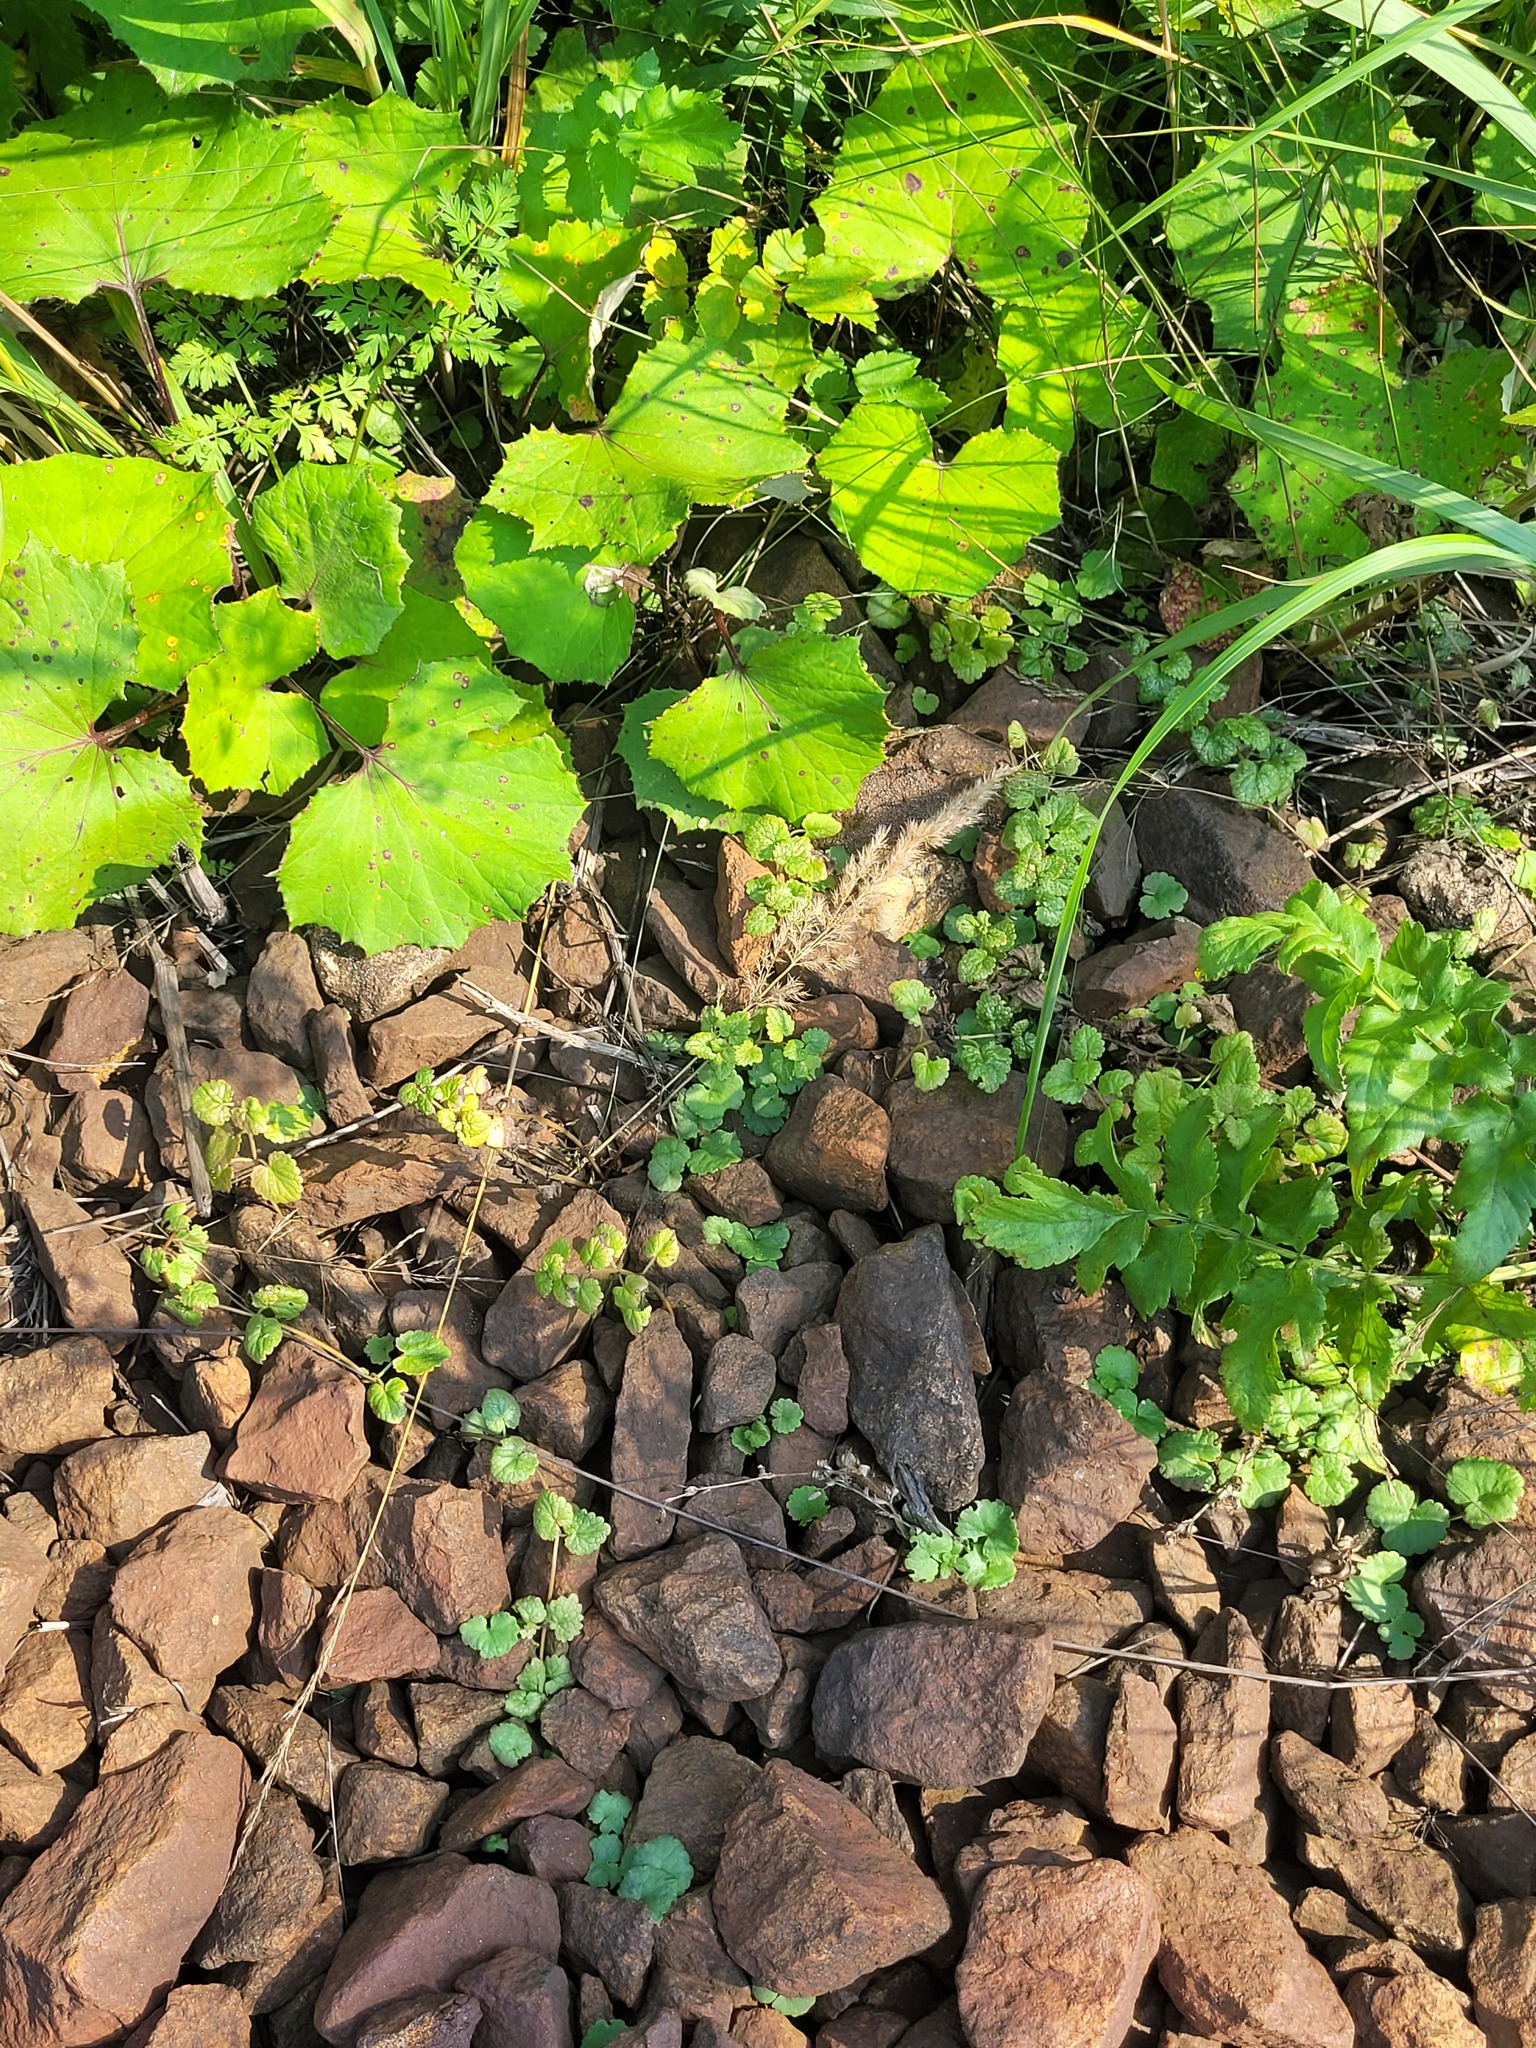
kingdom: Plantae
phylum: Tracheophyta
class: Magnoliopsida
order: Lamiales
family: Lamiaceae
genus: Glechoma
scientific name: Glechoma hederacea
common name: Ground ivy
